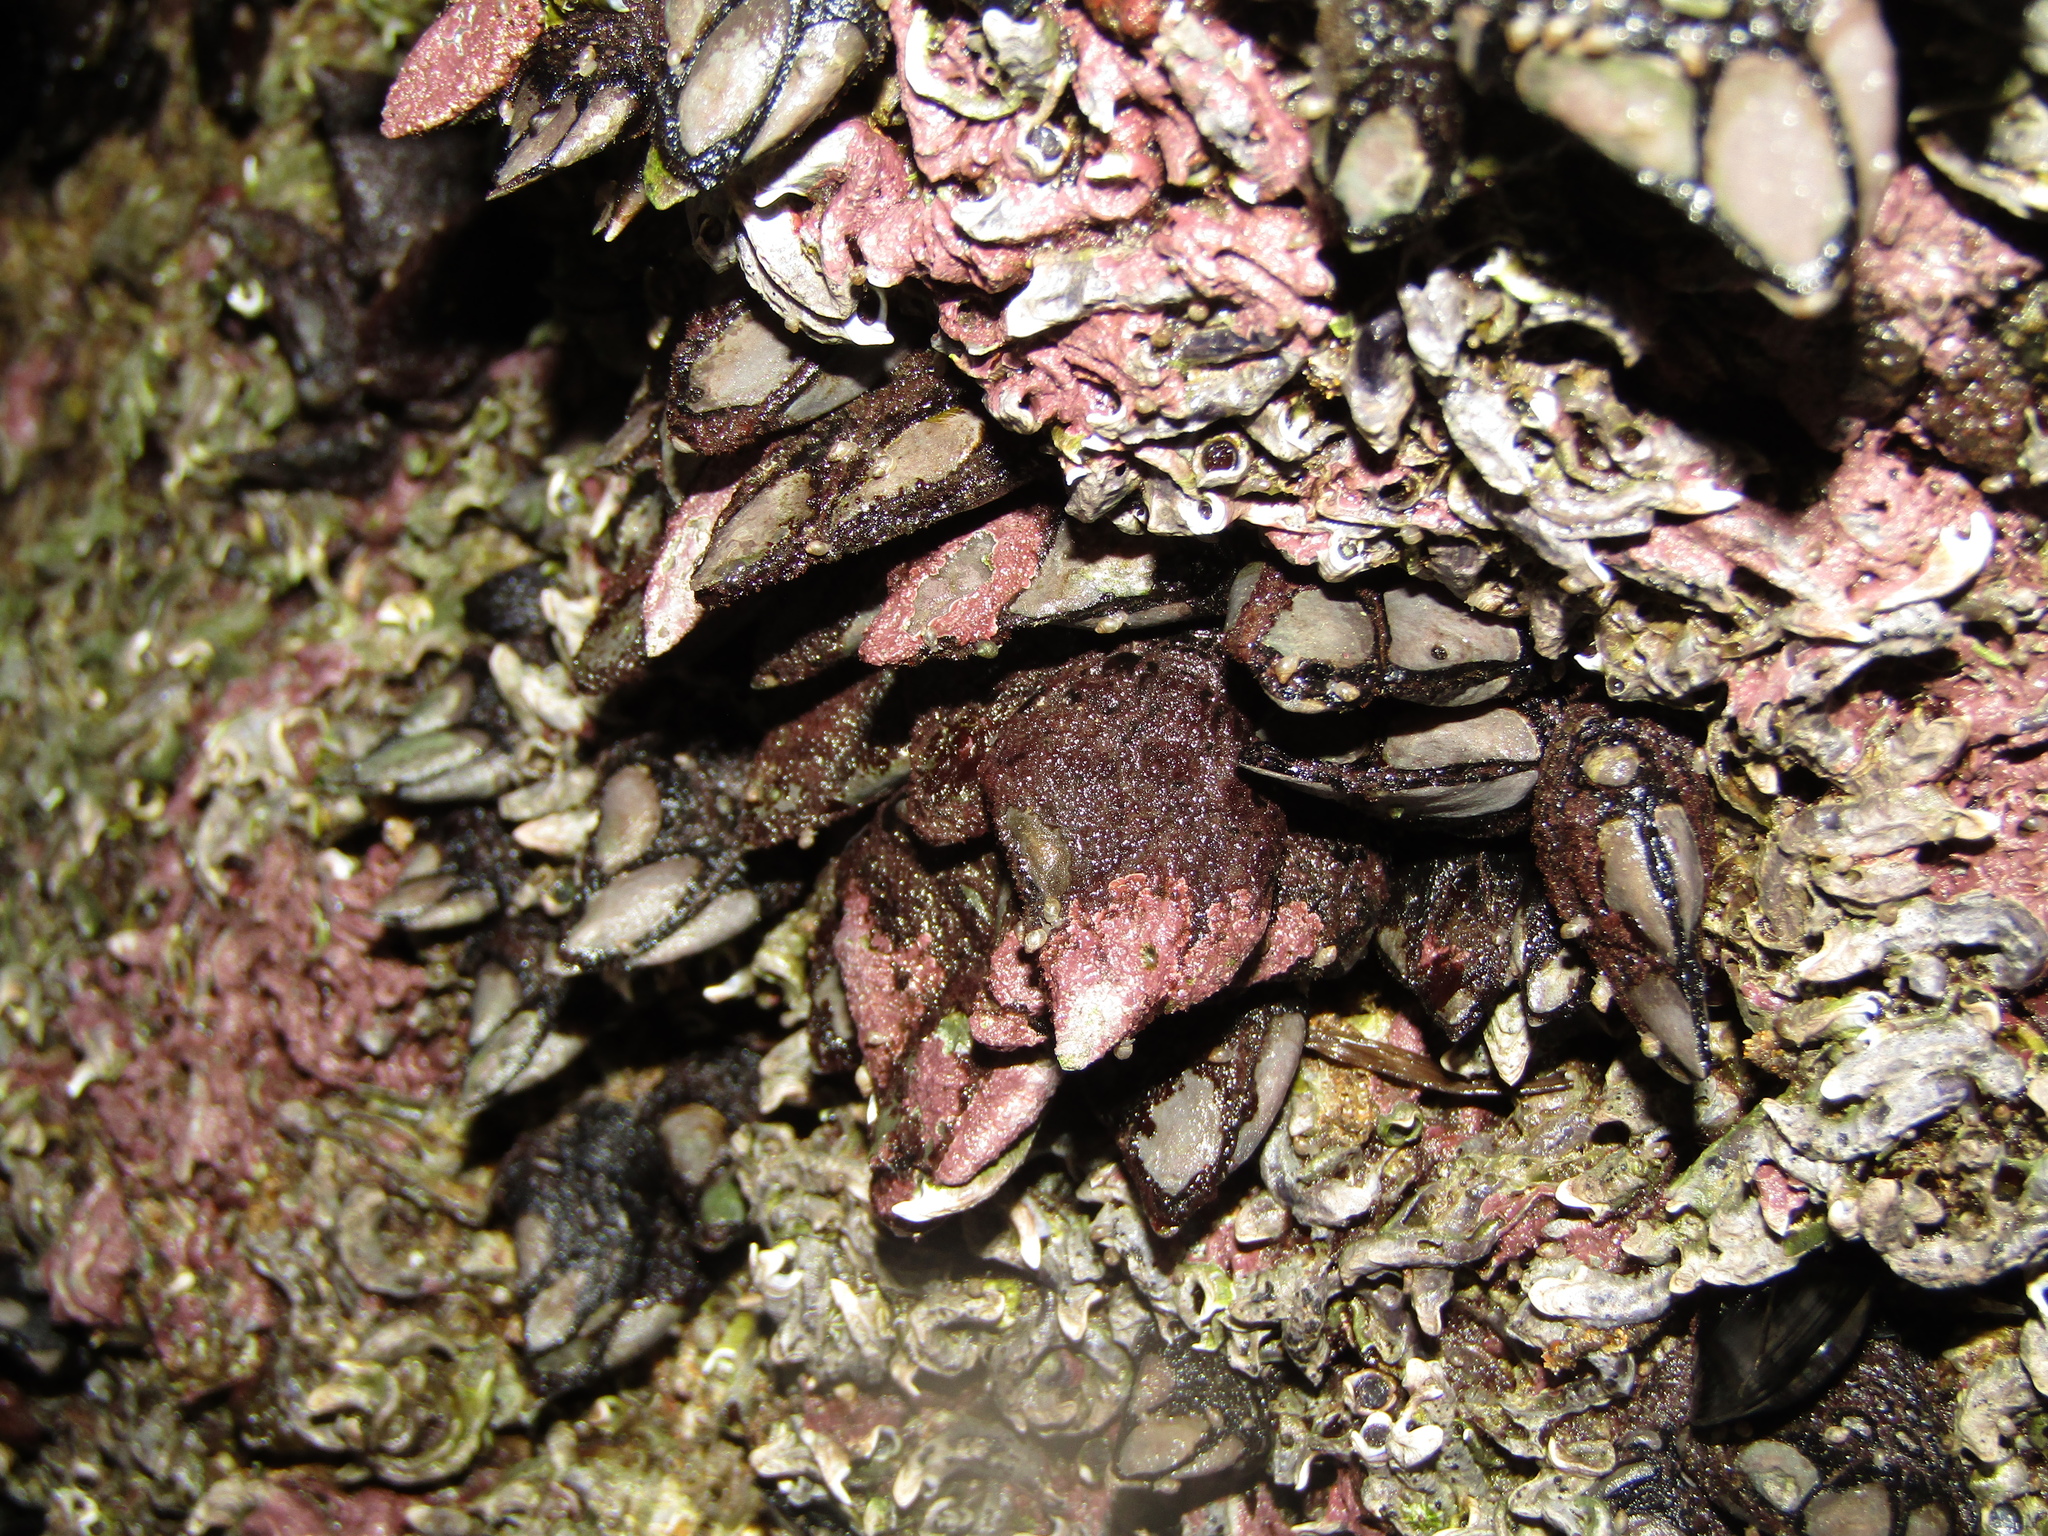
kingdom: Animalia
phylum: Arthropoda
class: Maxillopoda
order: Pedunculata
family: Calanticidae
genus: Calantica
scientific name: Calantica spinosa
